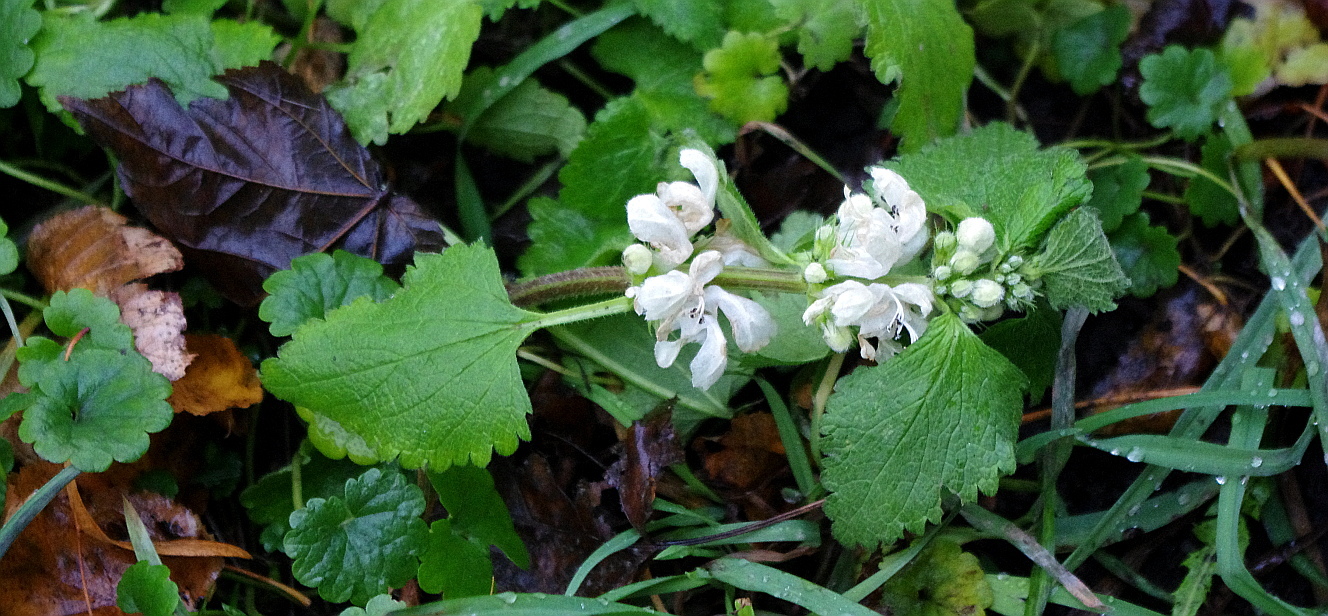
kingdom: Plantae
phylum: Tracheophyta
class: Magnoliopsida
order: Lamiales
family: Lamiaceae
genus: Lamium
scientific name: Lamium album
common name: White dead-nettle
